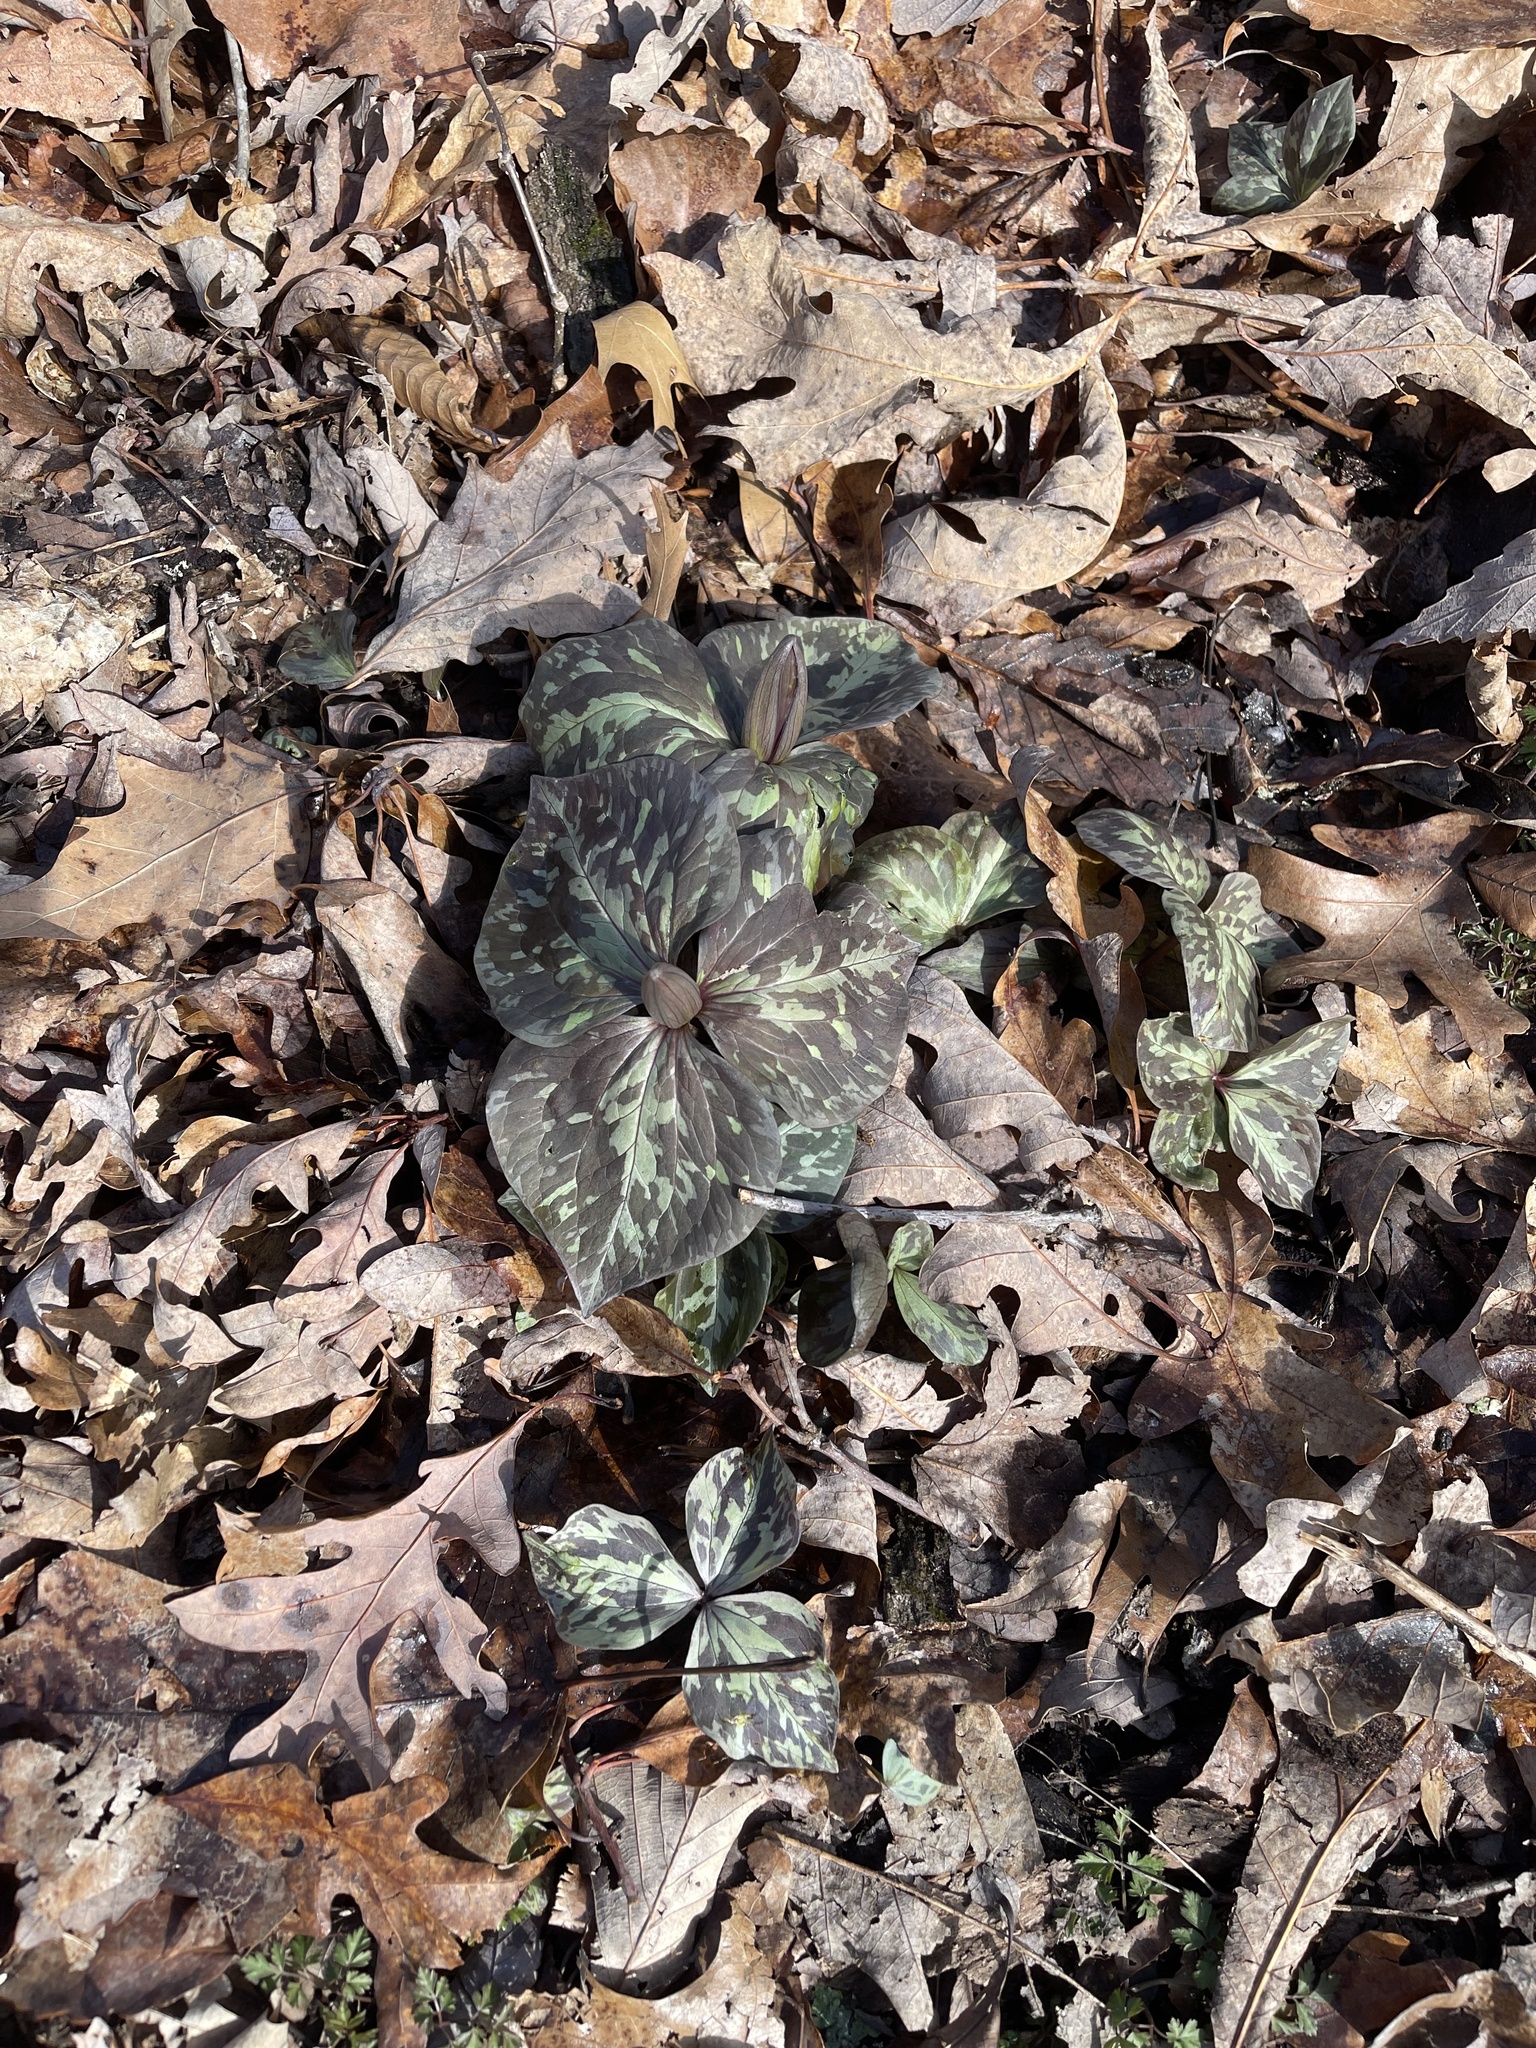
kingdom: Plantae
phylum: Tracheophyta
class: Liliopsida
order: Liliales
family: Melanthiaceae
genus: Trillium
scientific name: Trillium cuneatum
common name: Cuneate trillium
